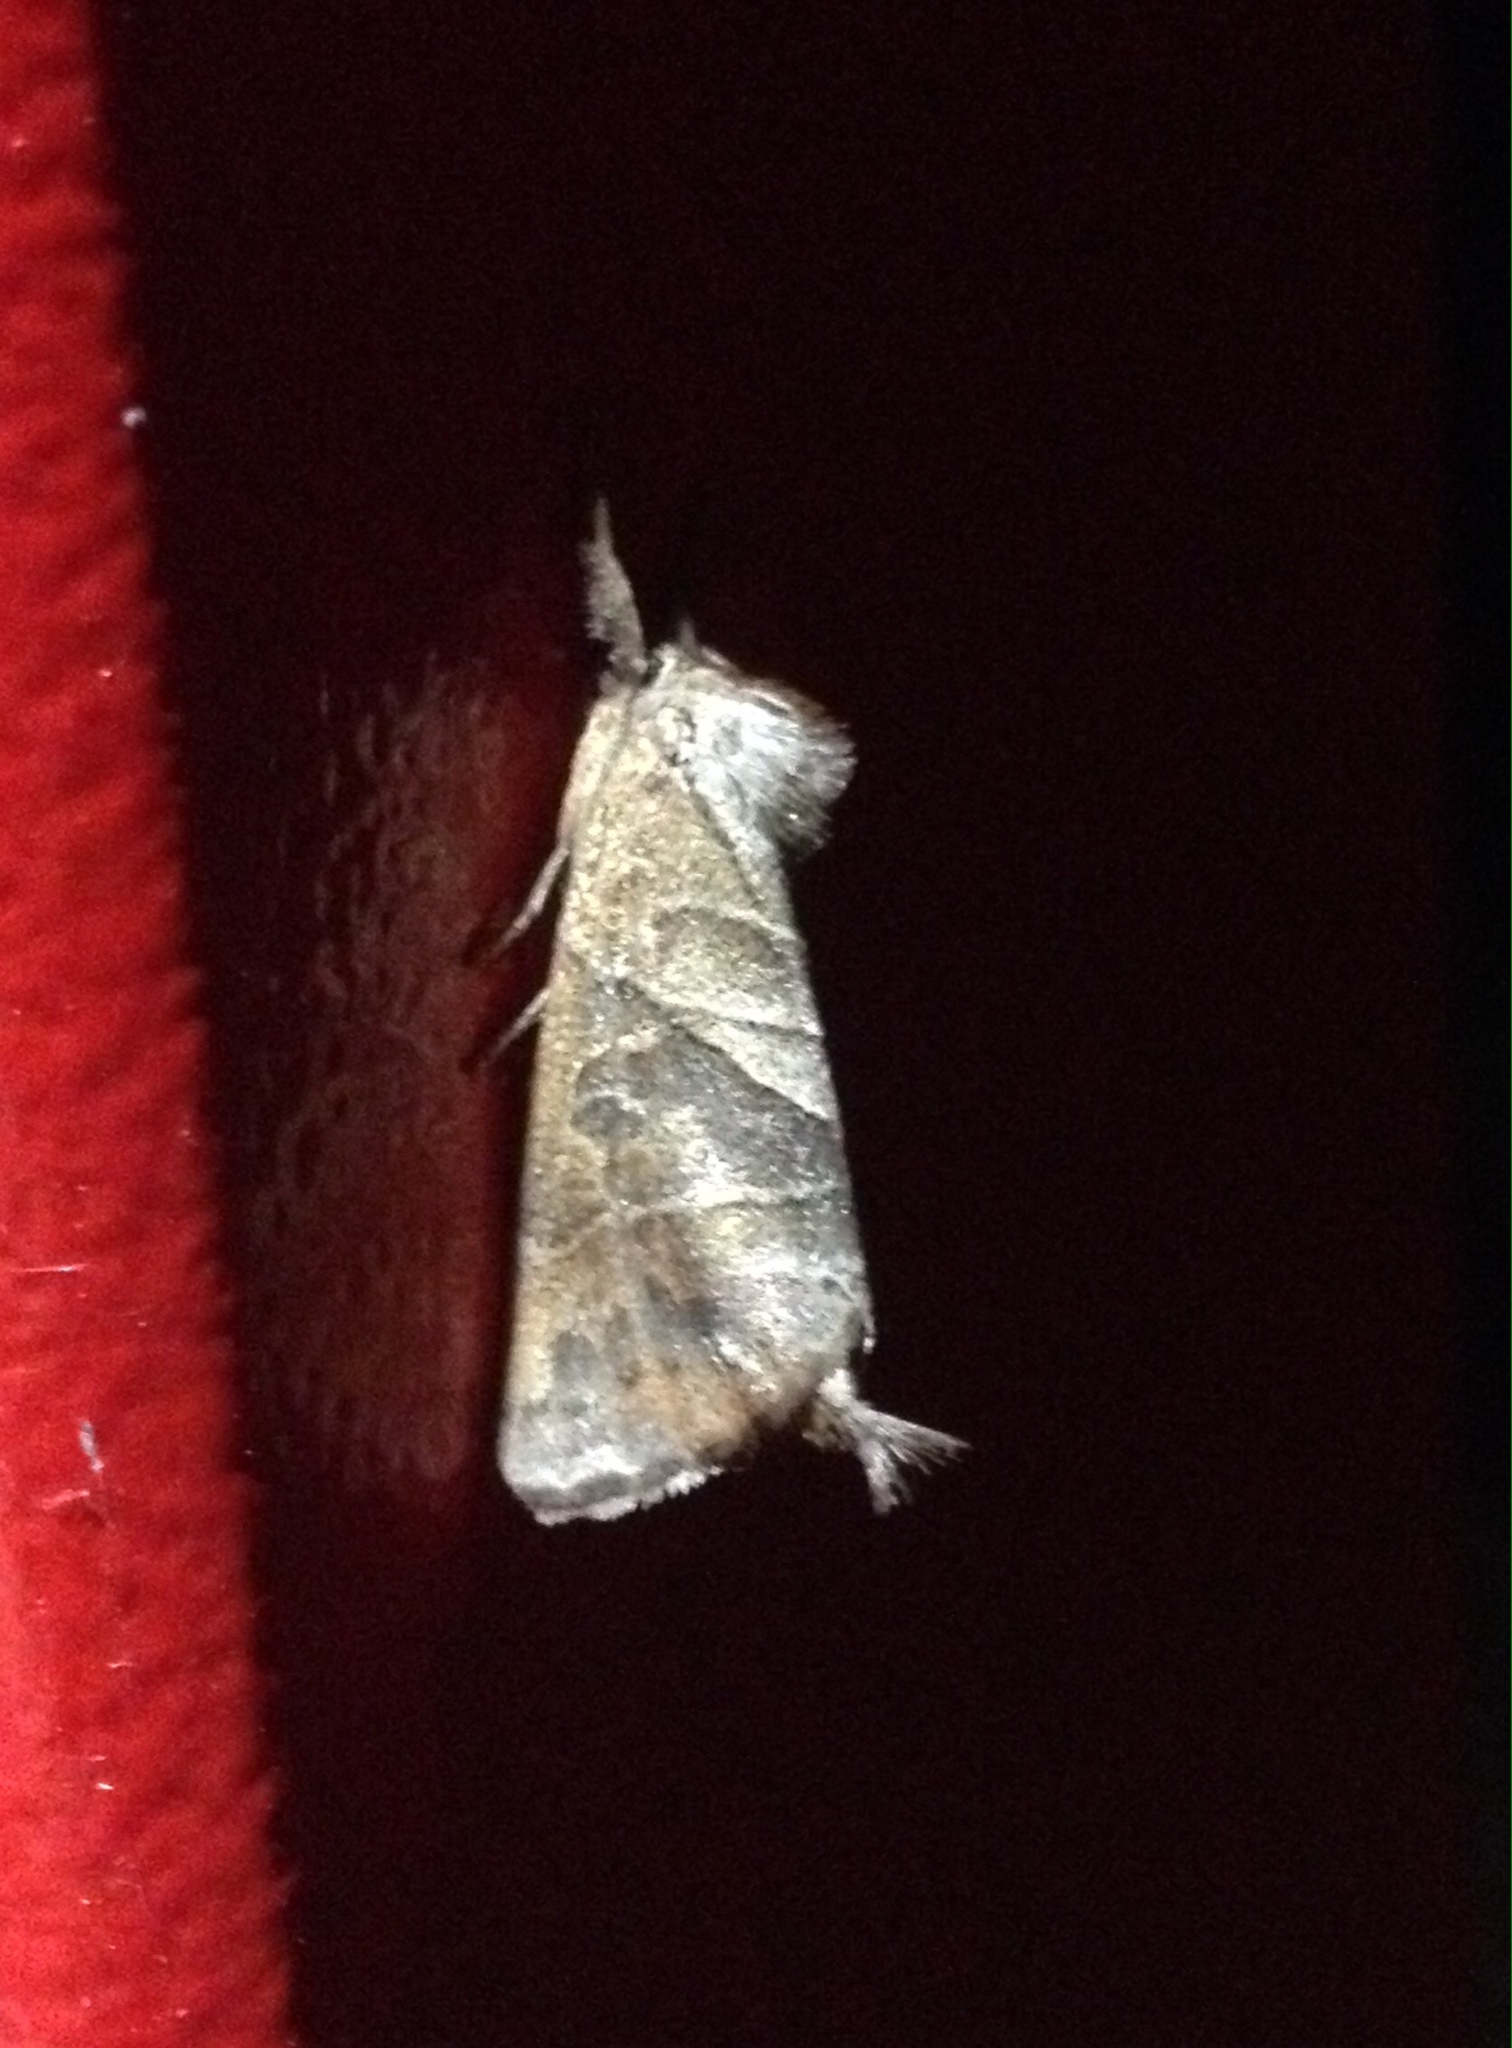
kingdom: Animalia
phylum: Arthropoda
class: Insecta
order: Lepidoptera
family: Notodontidae
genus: Clostera
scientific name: Clostera anastomosis
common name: Poplar tip moth
